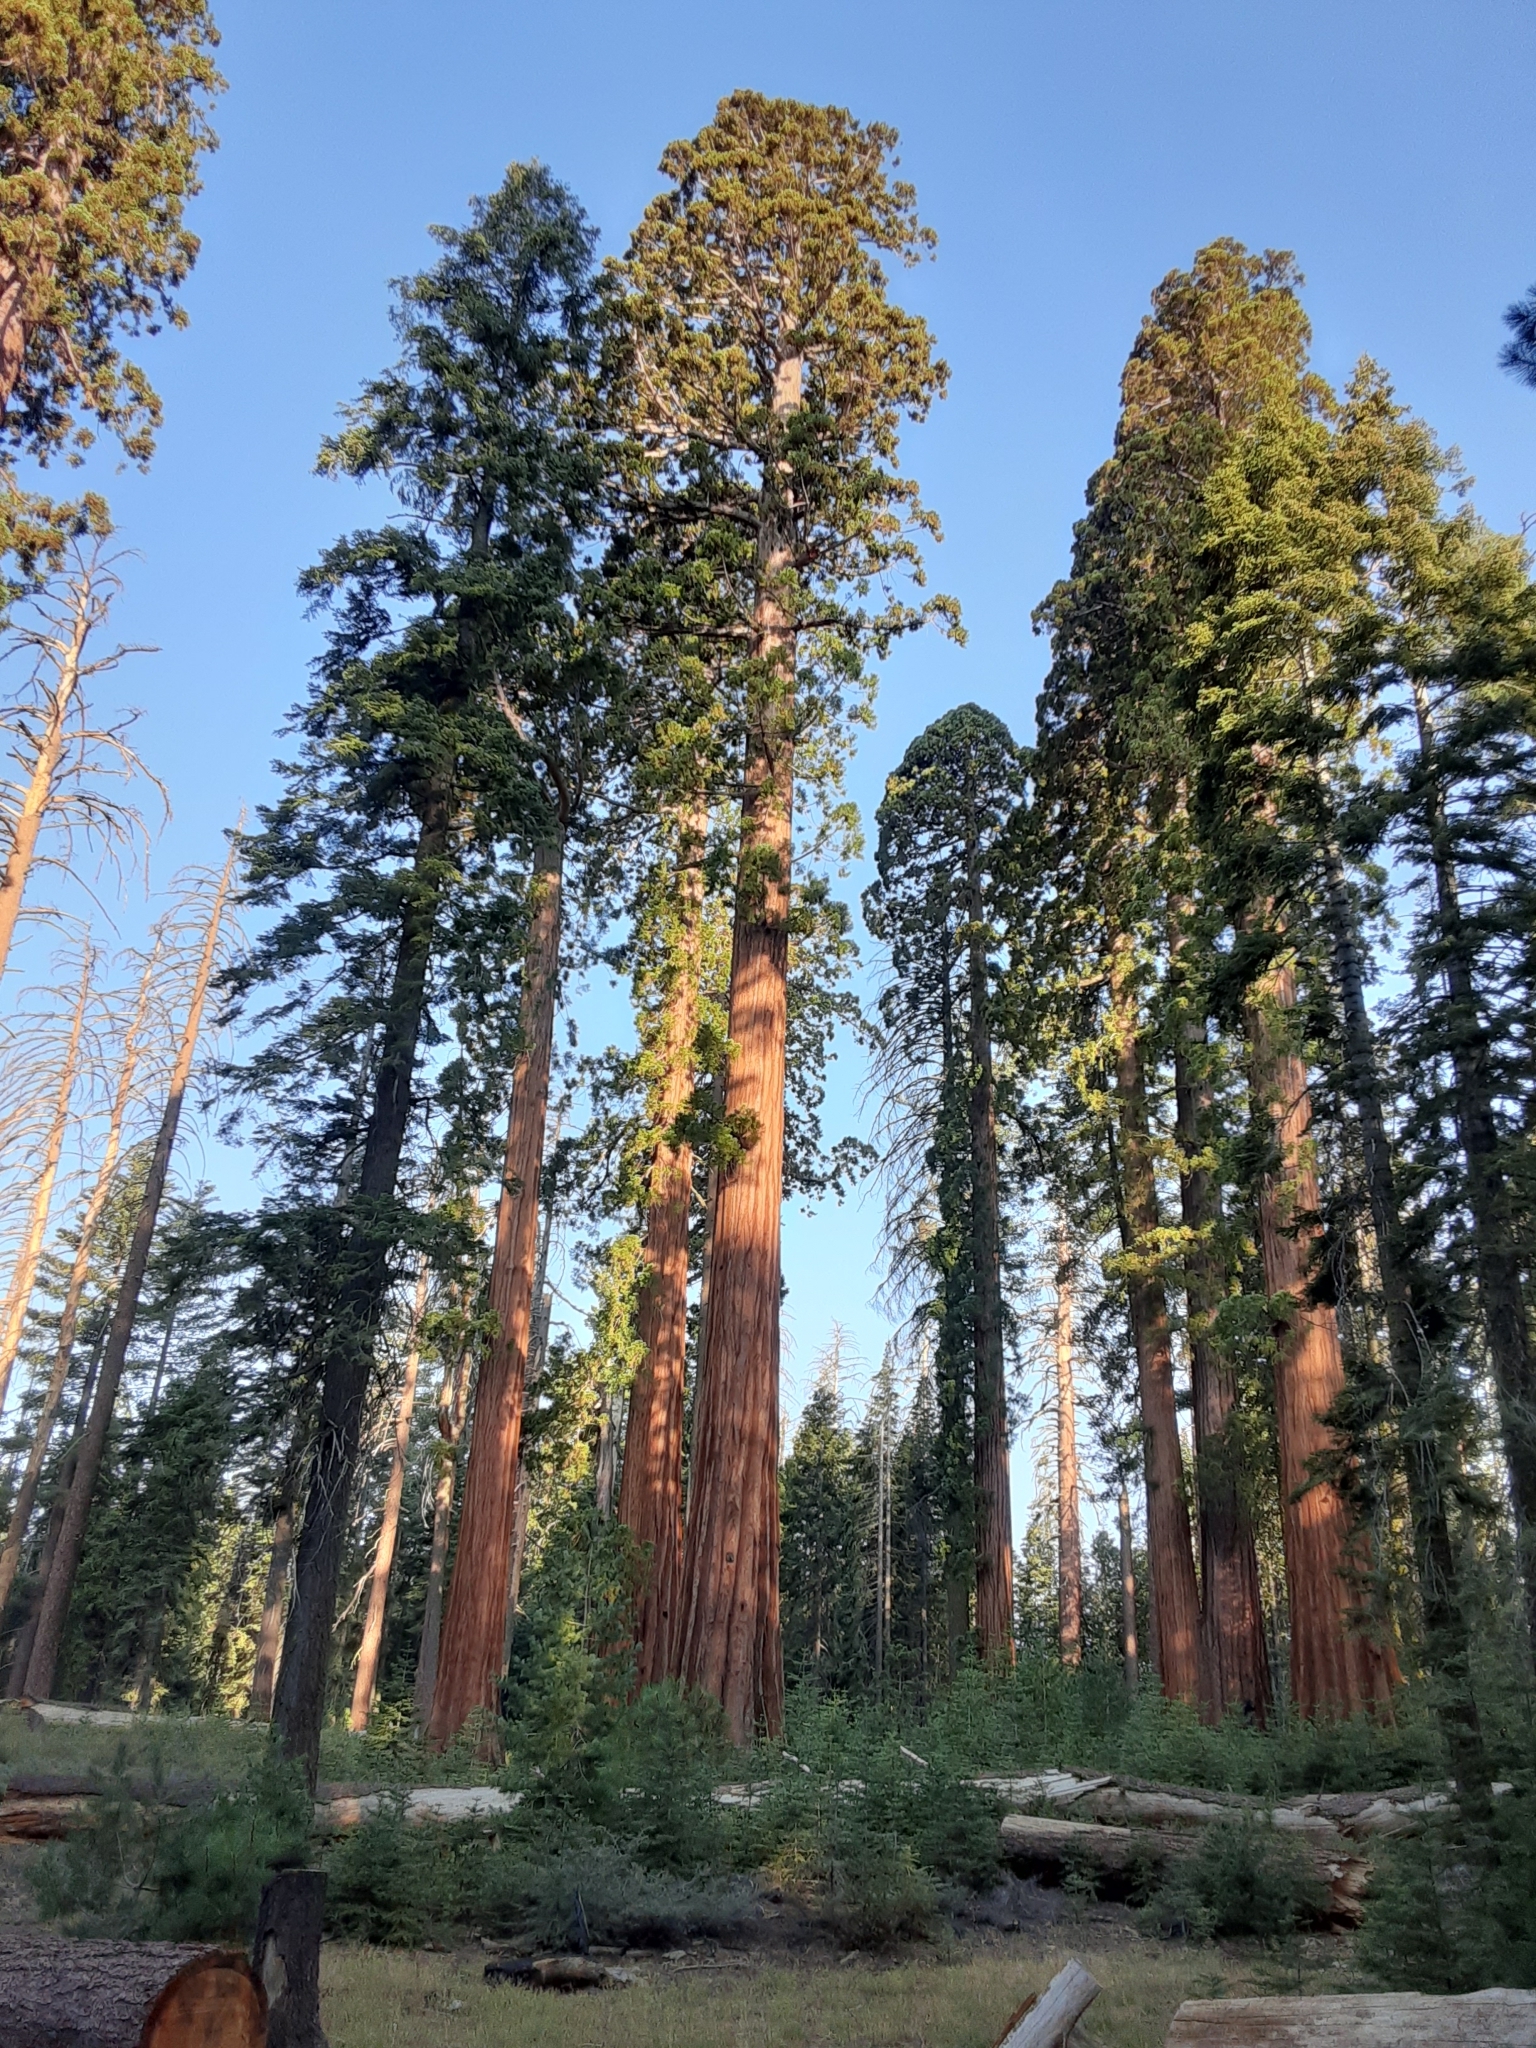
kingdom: Plantae
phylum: Tracheophyta
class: Pinopsida
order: Pinales
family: Cupressaceae
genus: Sequoiadendron
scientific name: Sequoiadendron giganteum
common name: Wellingtonia
